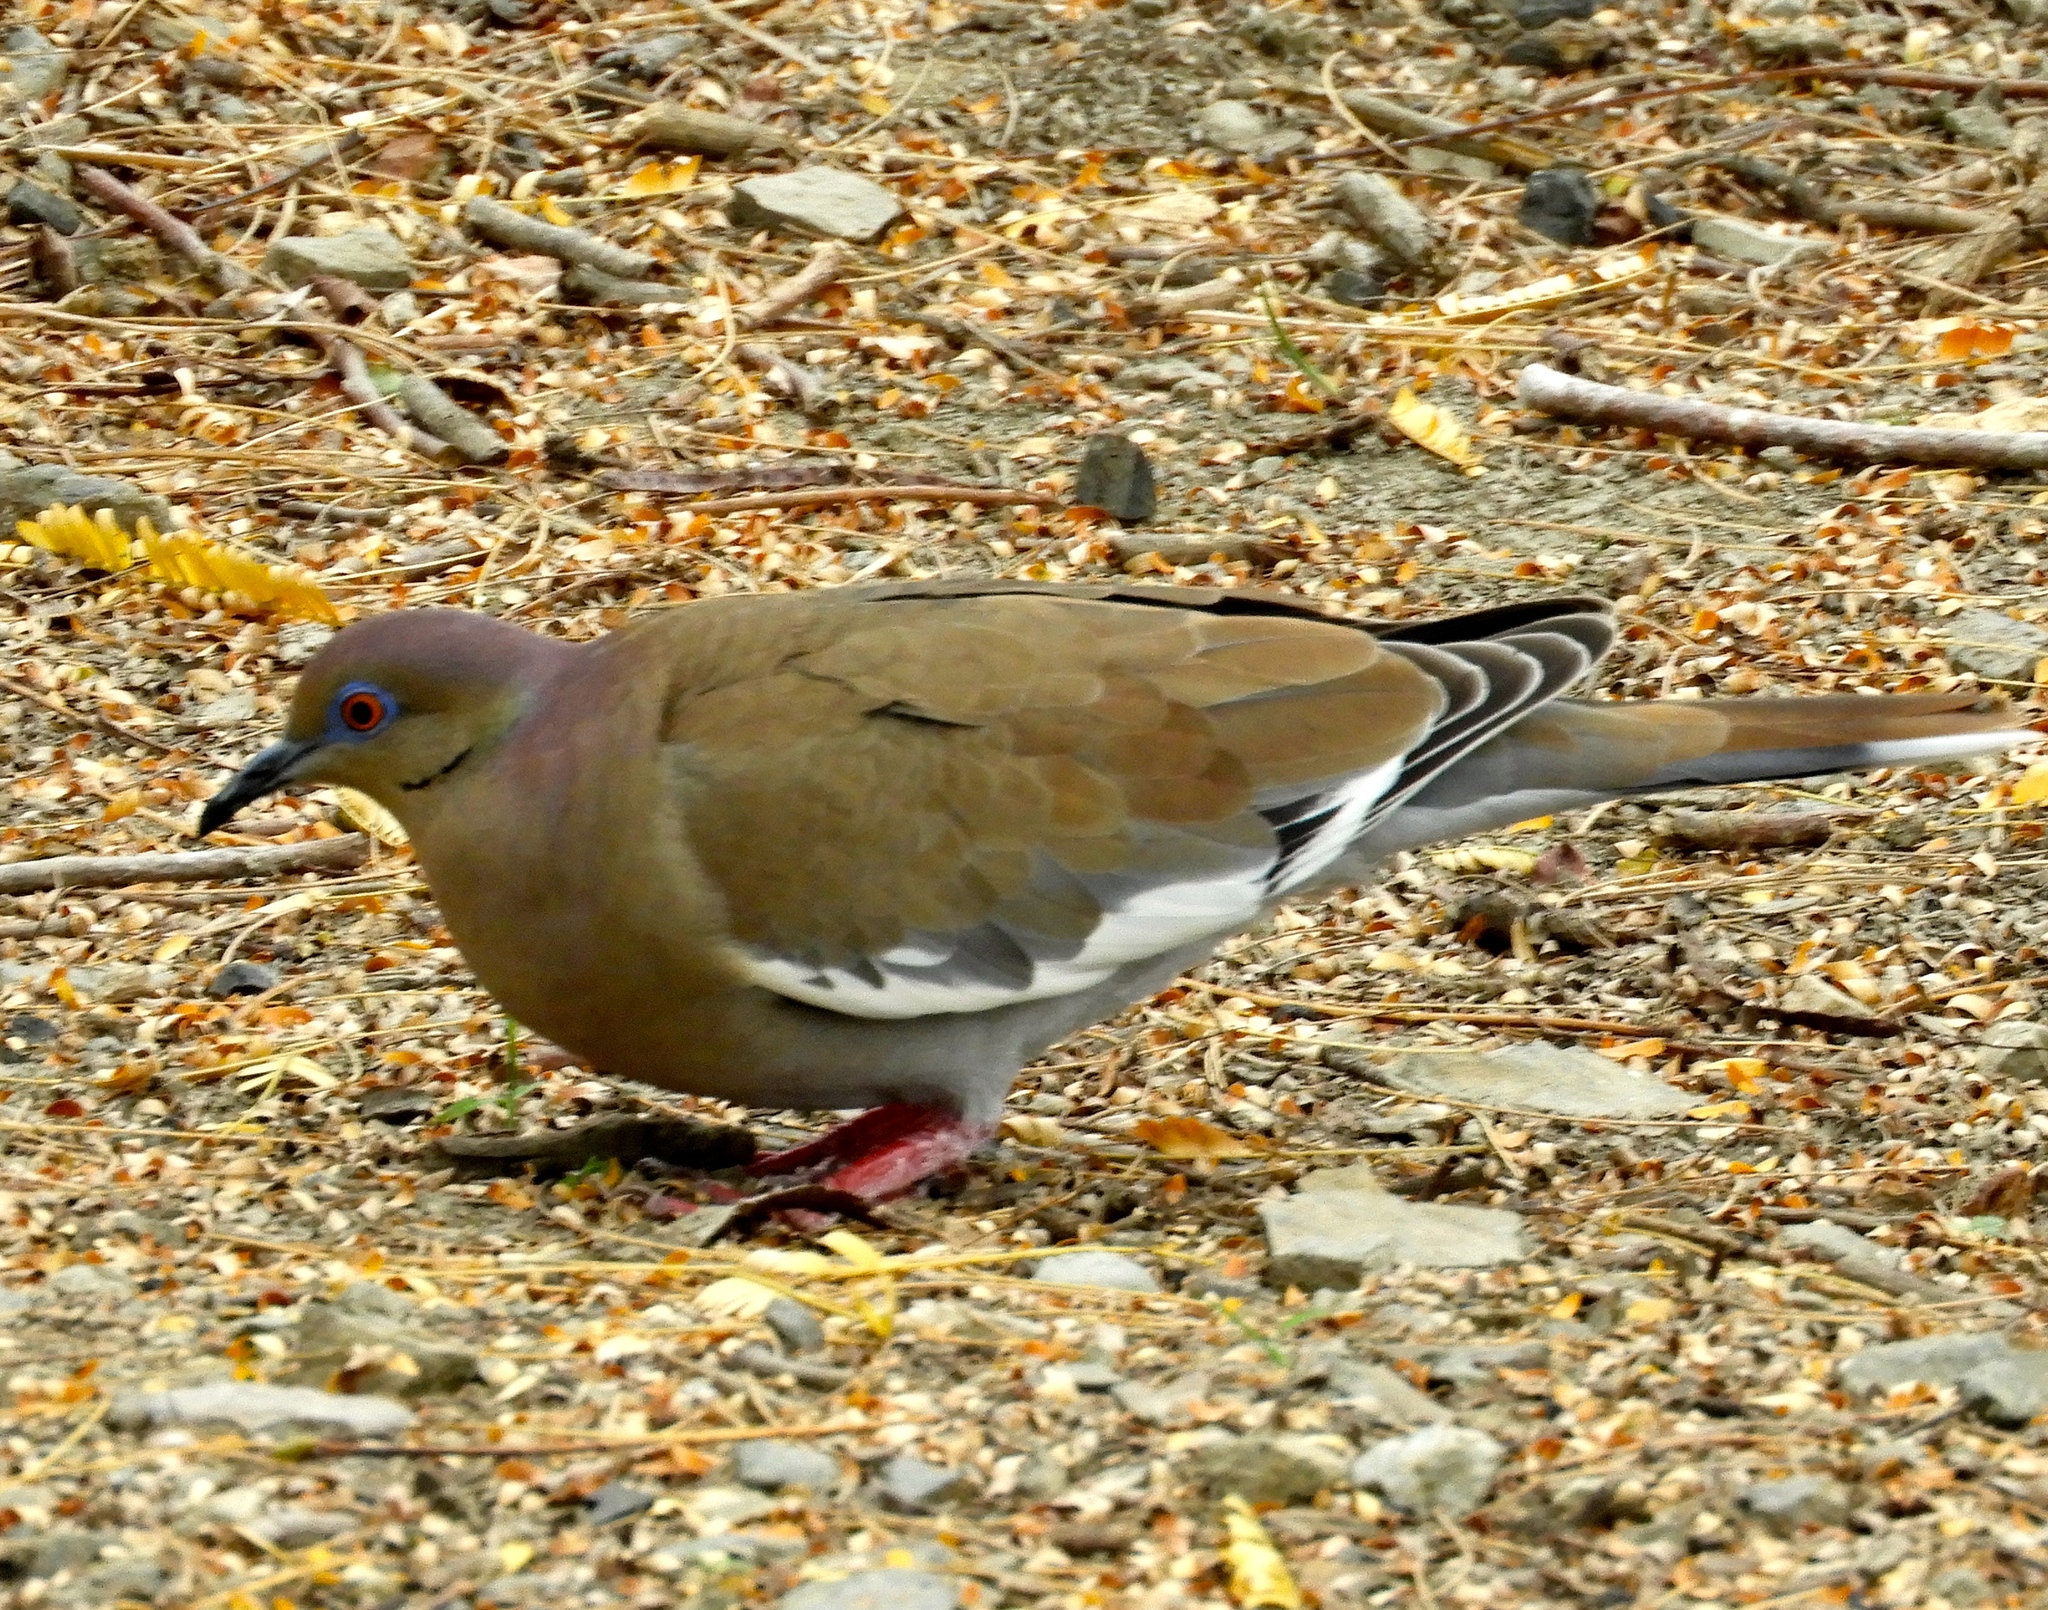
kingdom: Animalia
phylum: Chordata
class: Aves
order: Columbiformes
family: Columbidae
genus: Zenaida
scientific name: Zenaida asiatica
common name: White-winged dove
